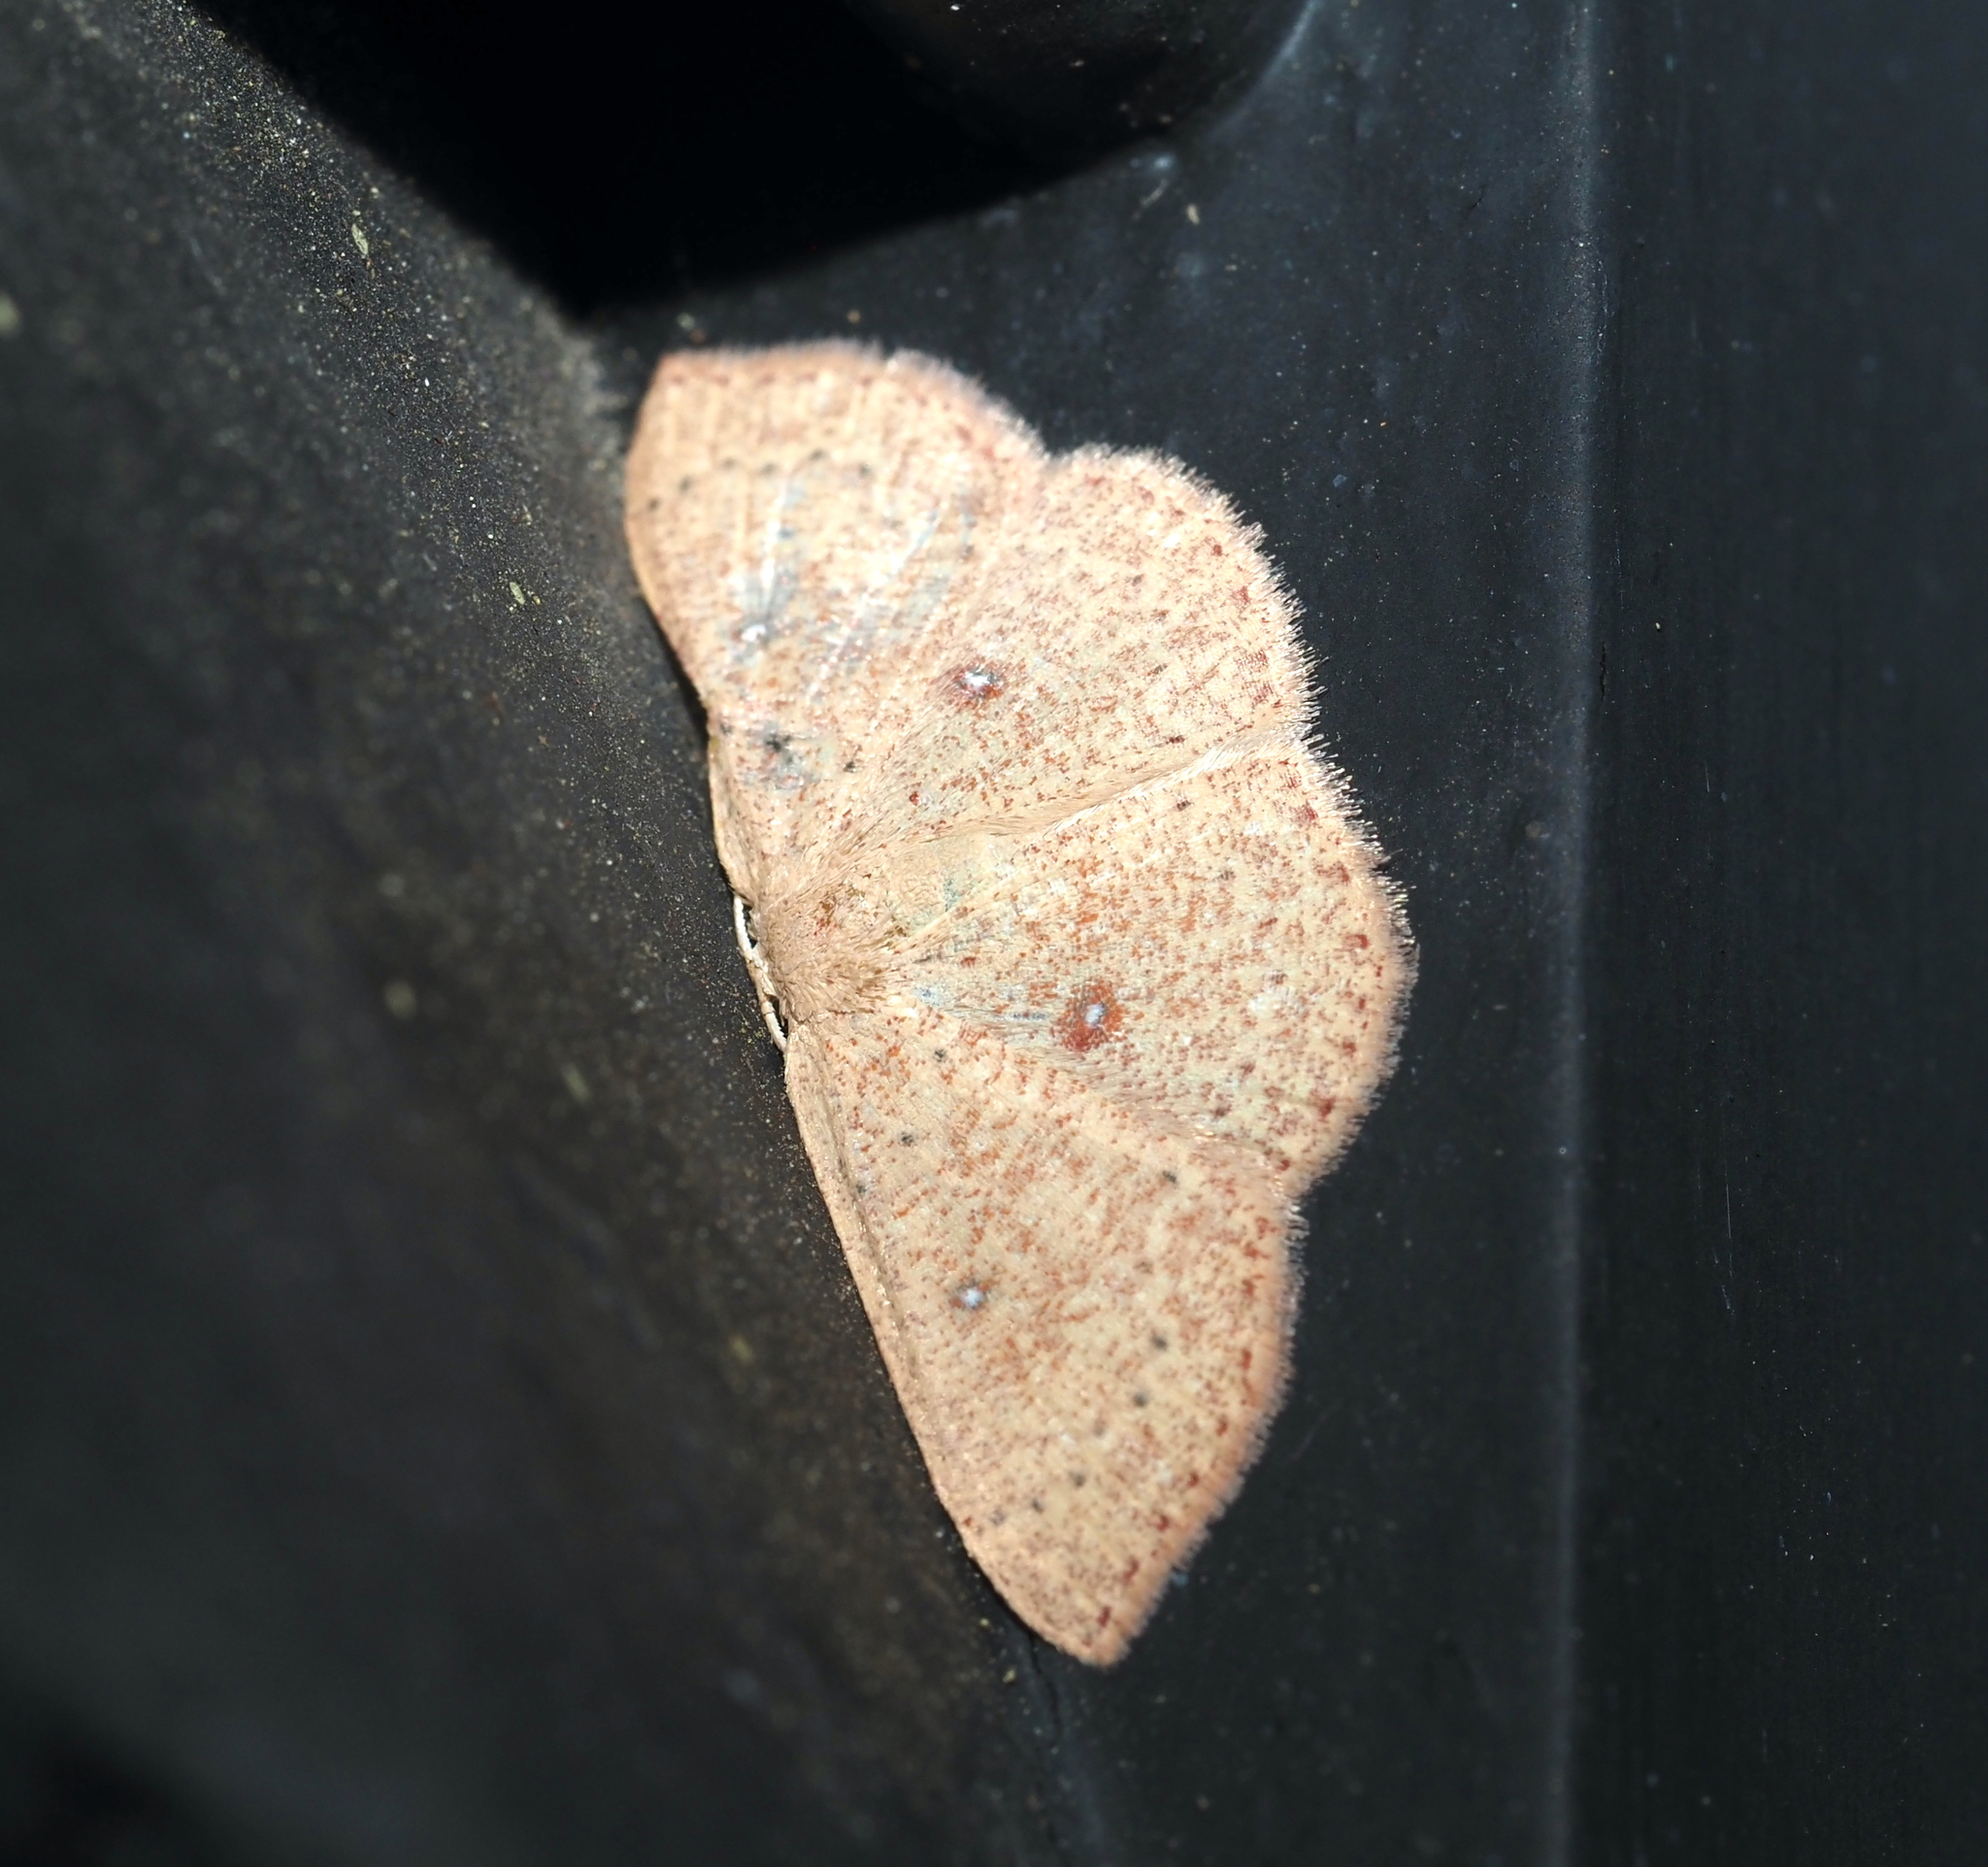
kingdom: Animalia
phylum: Arthropoda
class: Insecta
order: Lepidoptera
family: Geometridae
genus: Cyclophora
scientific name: Cyclophora packardi
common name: Packard's wave
